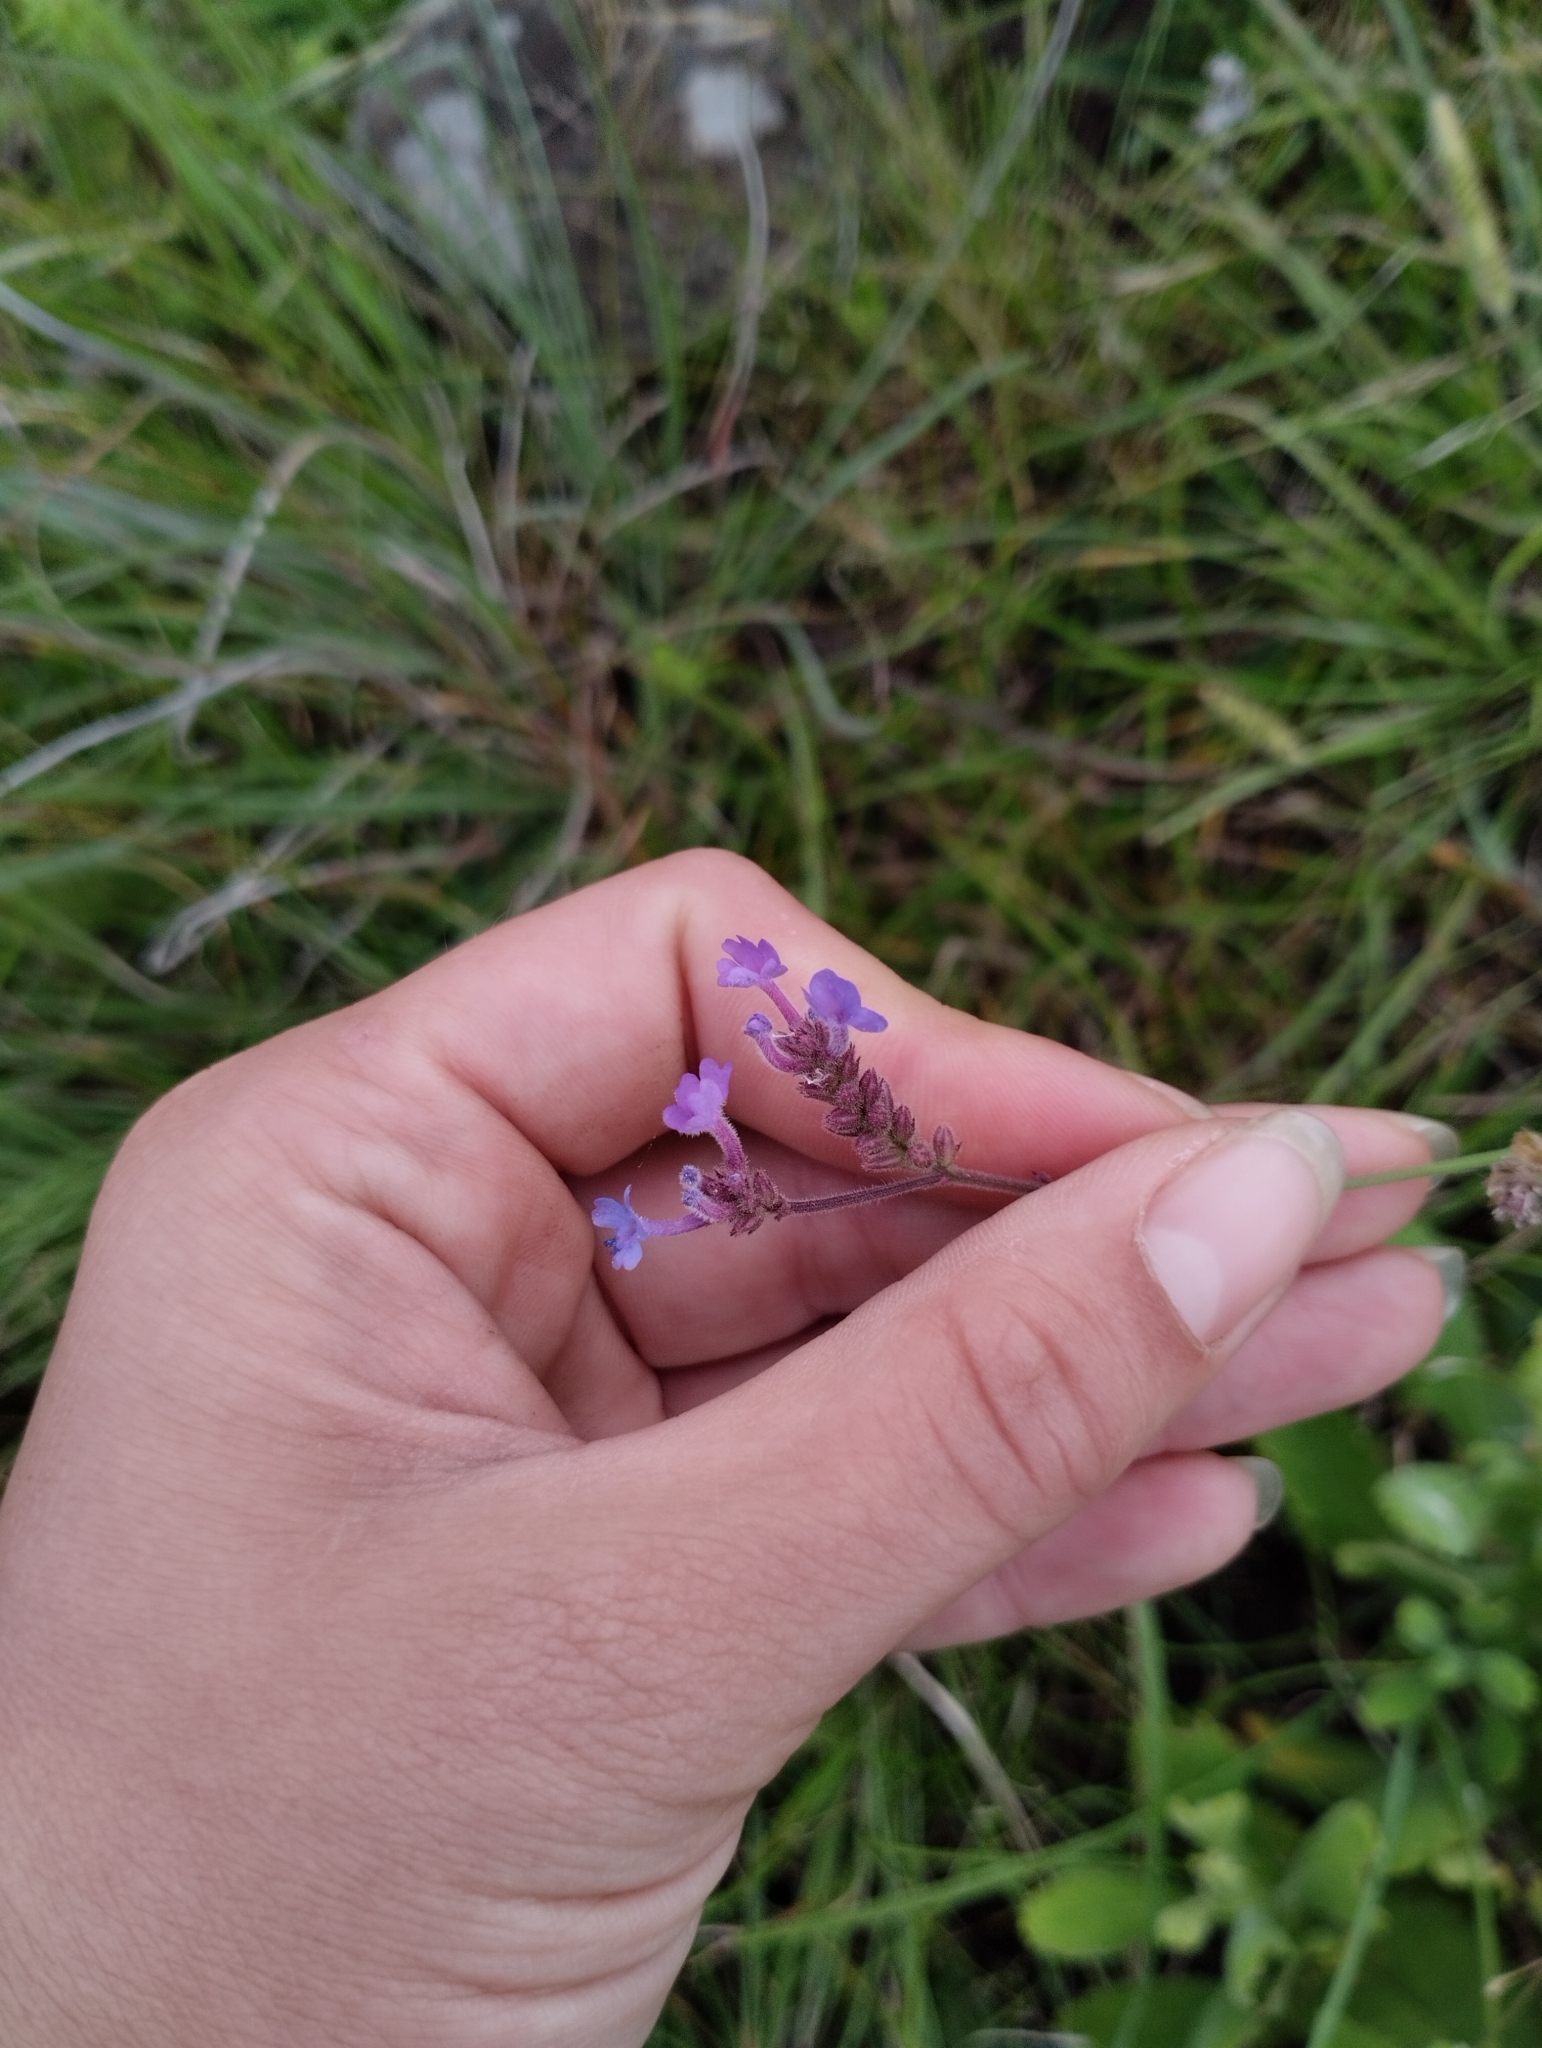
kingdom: Plantae
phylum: Tracheophyta
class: Magnoliopsida
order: Lamiales
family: Verbenaceae
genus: Verbena
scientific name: Verbena intermedia
